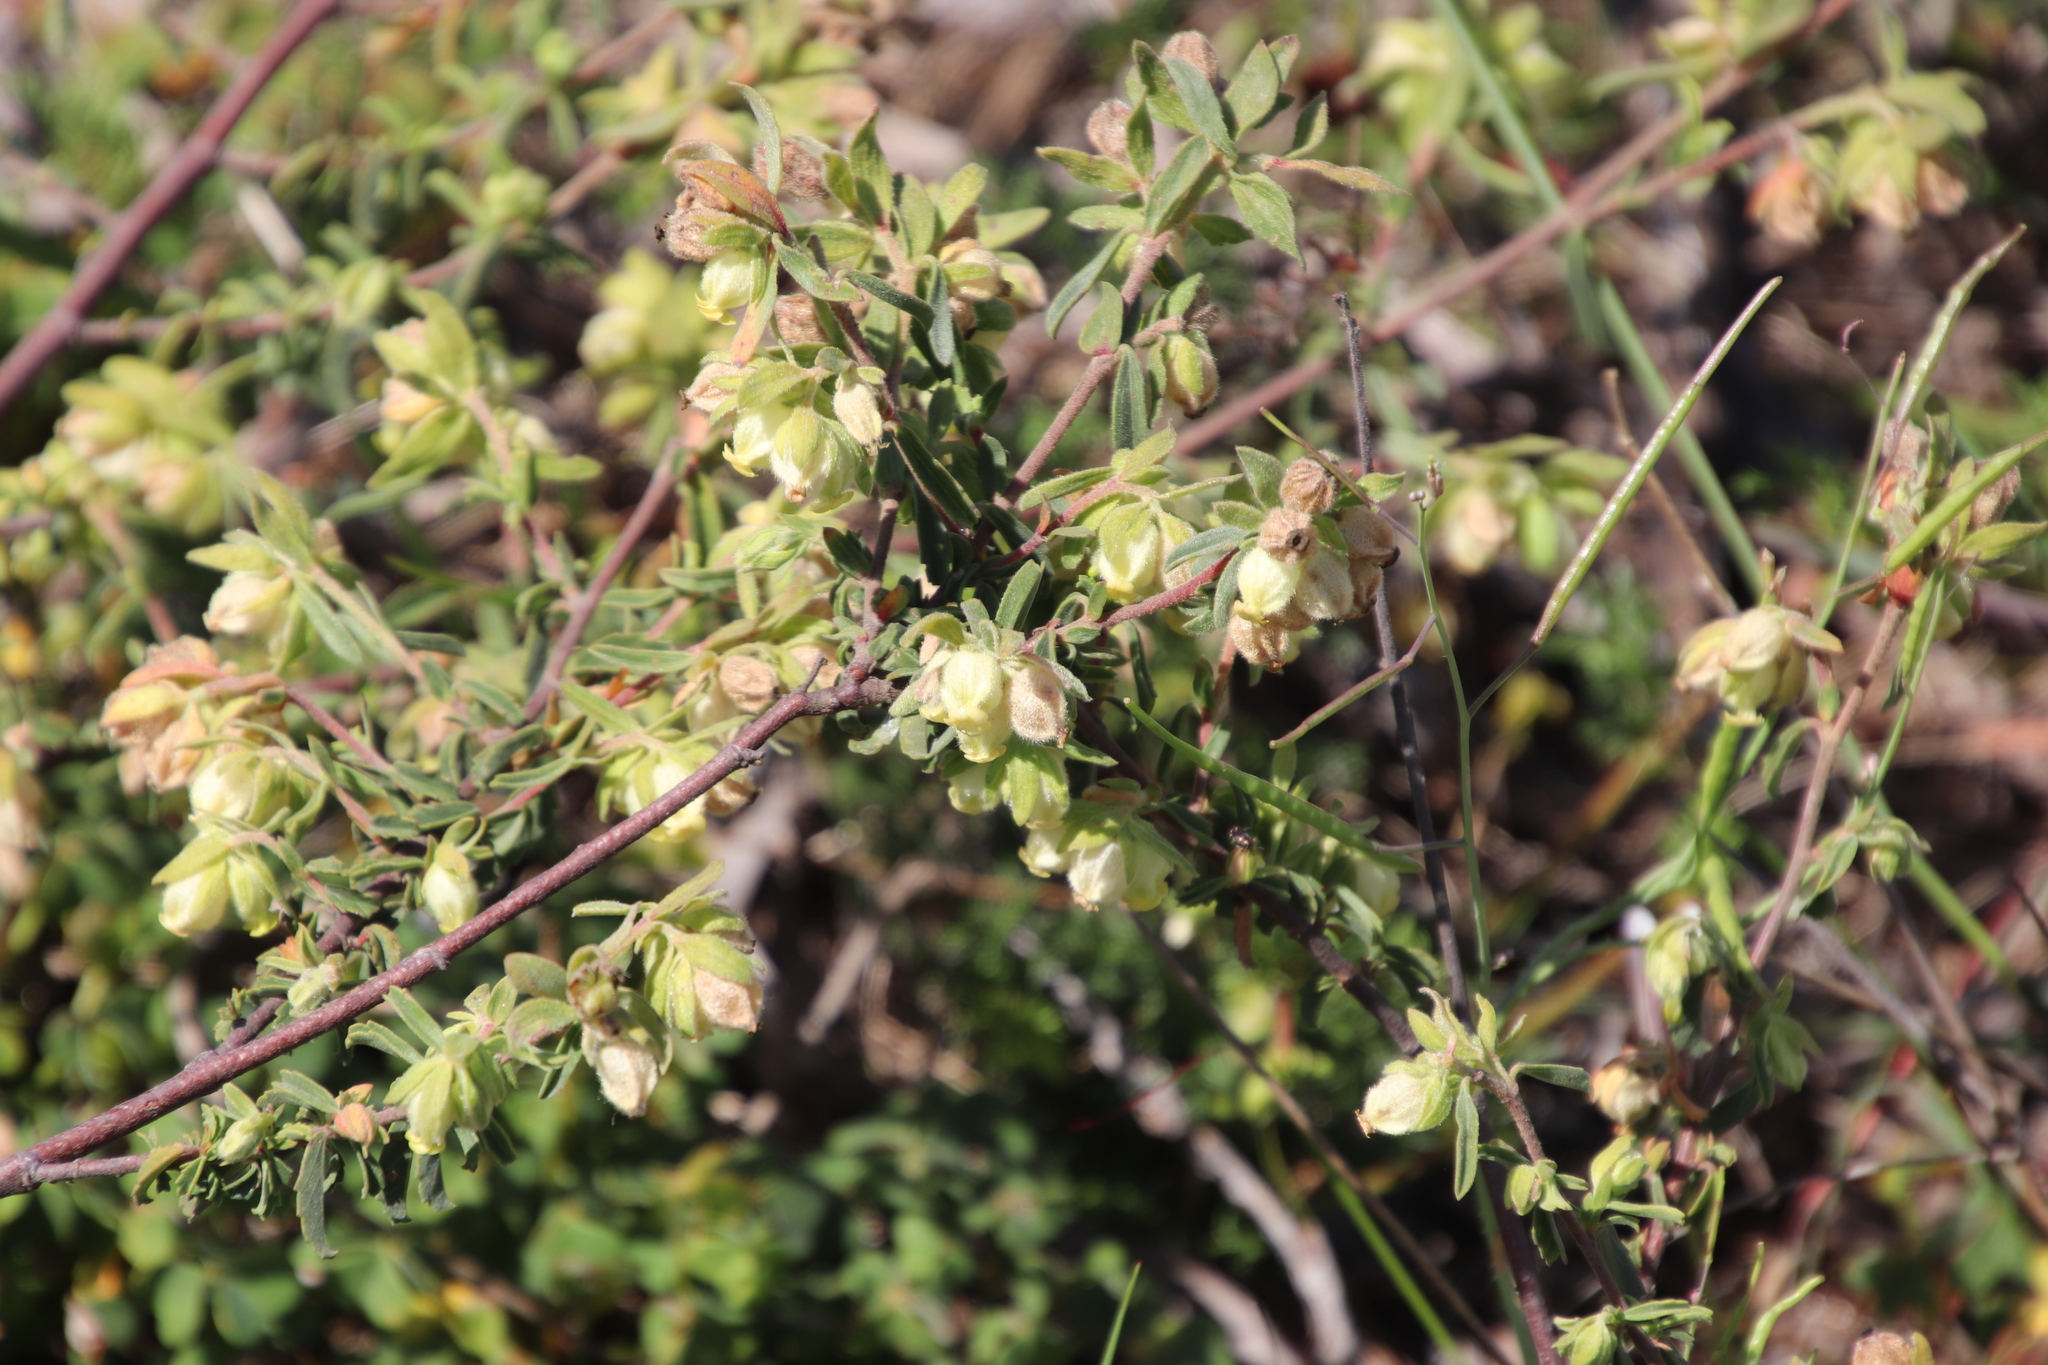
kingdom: Plantae
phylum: Tracheophyta
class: Magnoliopsida
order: Malvales
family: Malvaceae
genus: Hermannia
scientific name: Hermannia hyssopifolia
